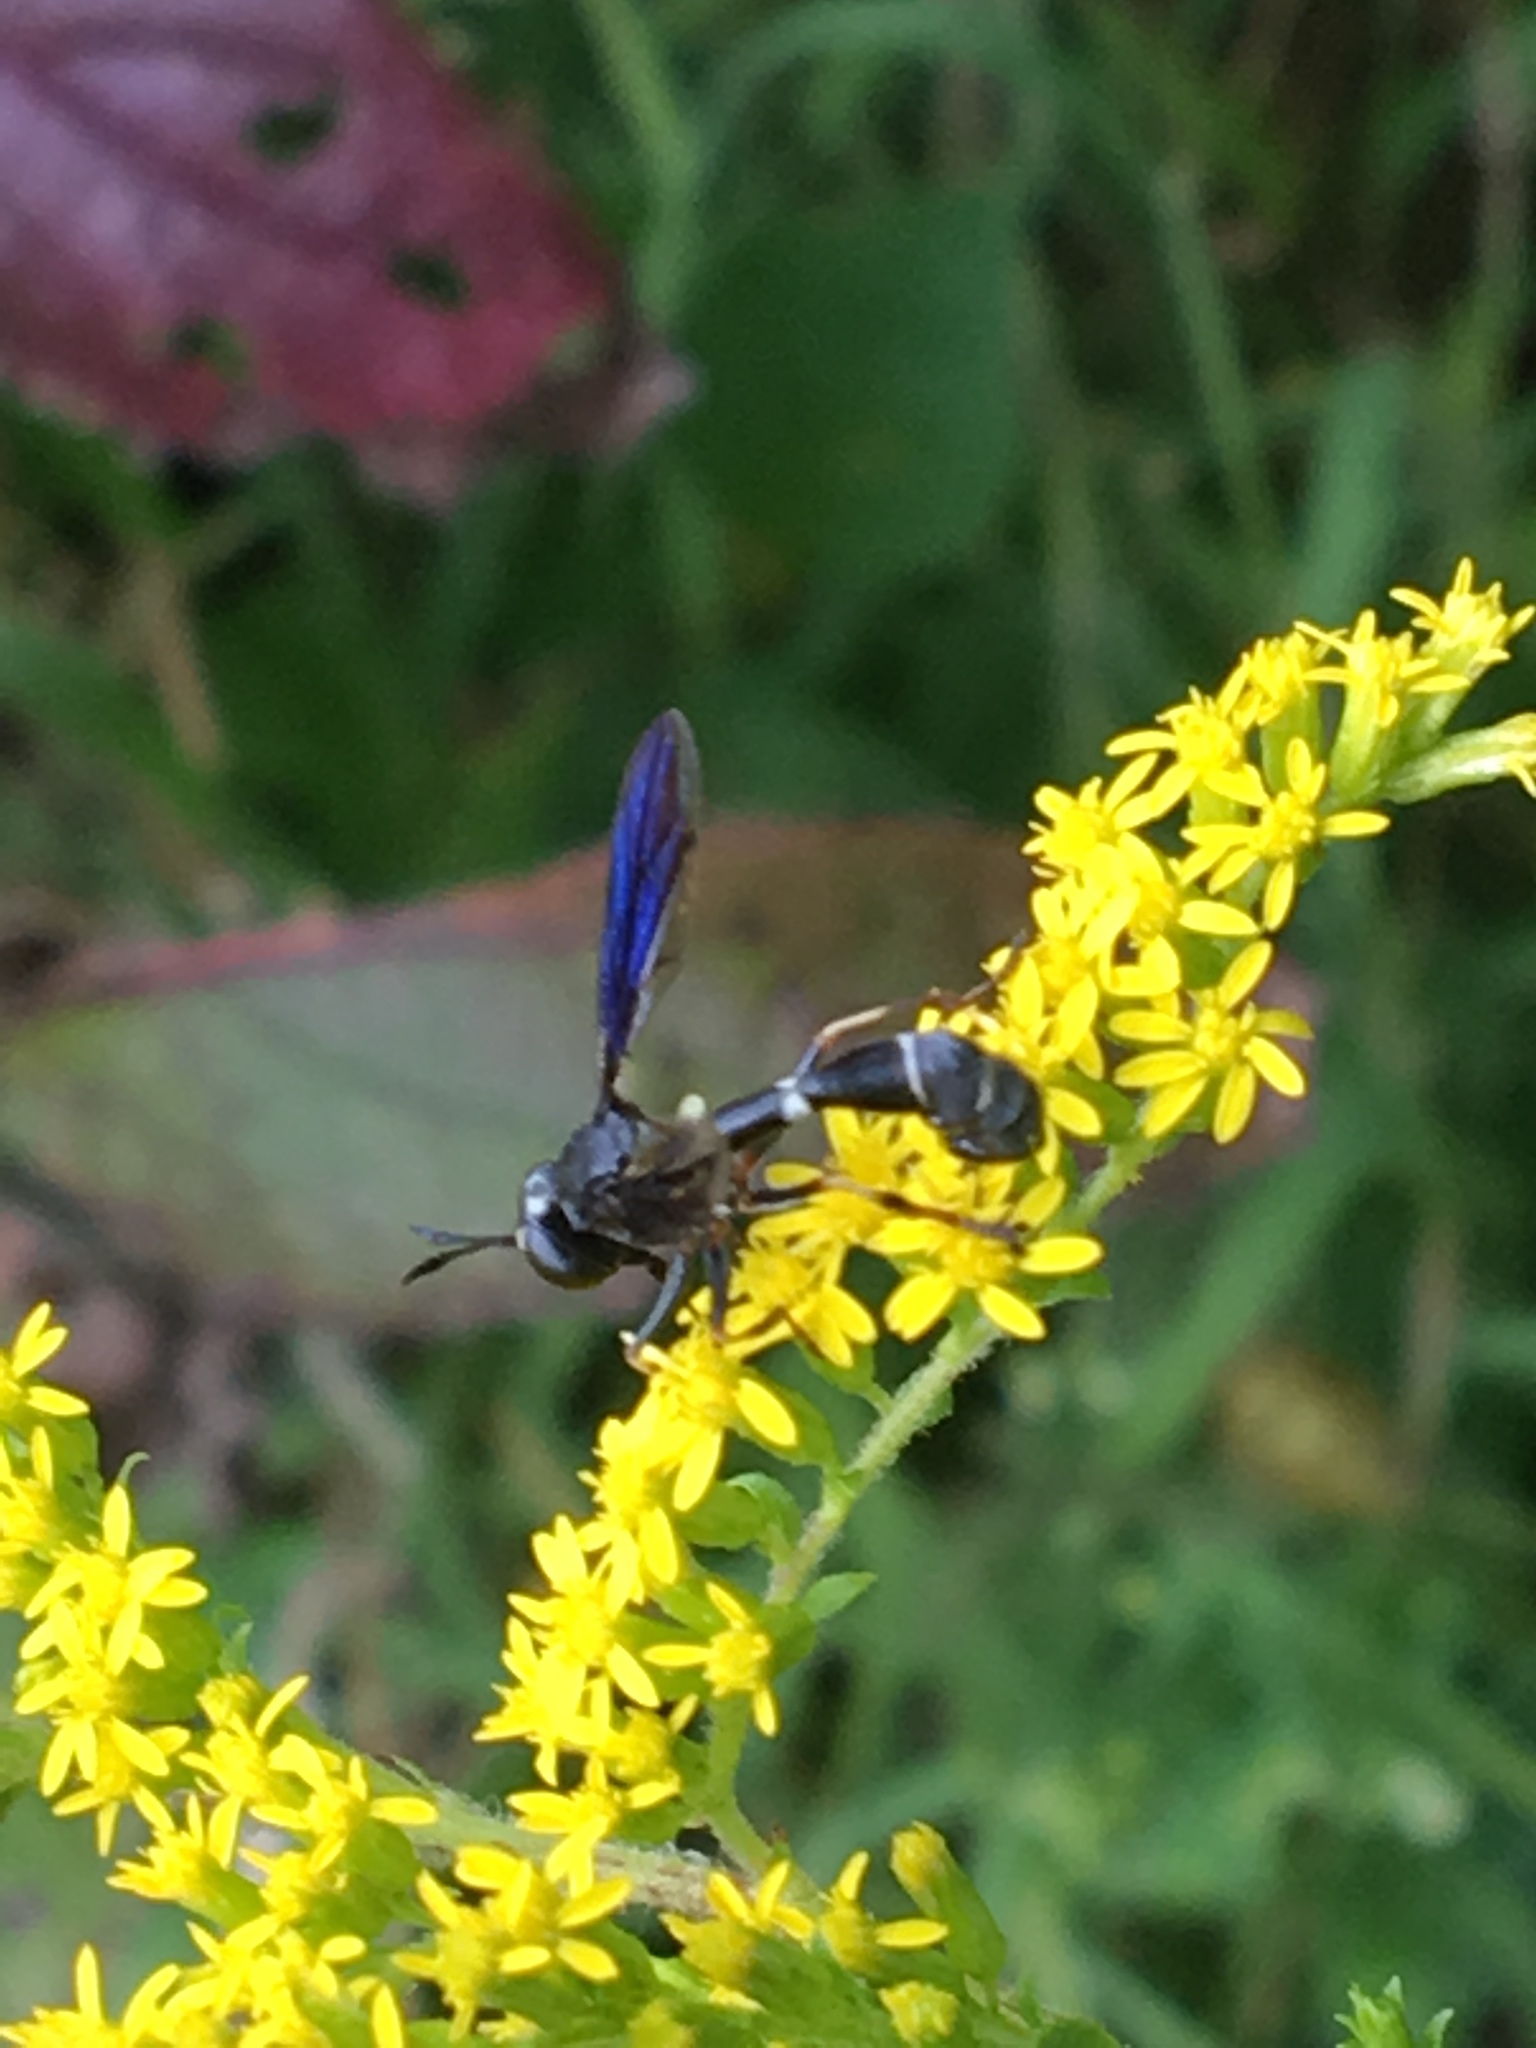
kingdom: Animalia
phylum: Arthropoda
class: Insecta
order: Diptera
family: Conopidae
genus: Physocephala
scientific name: Physocephala tibialis
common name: Common eastern physocephala
